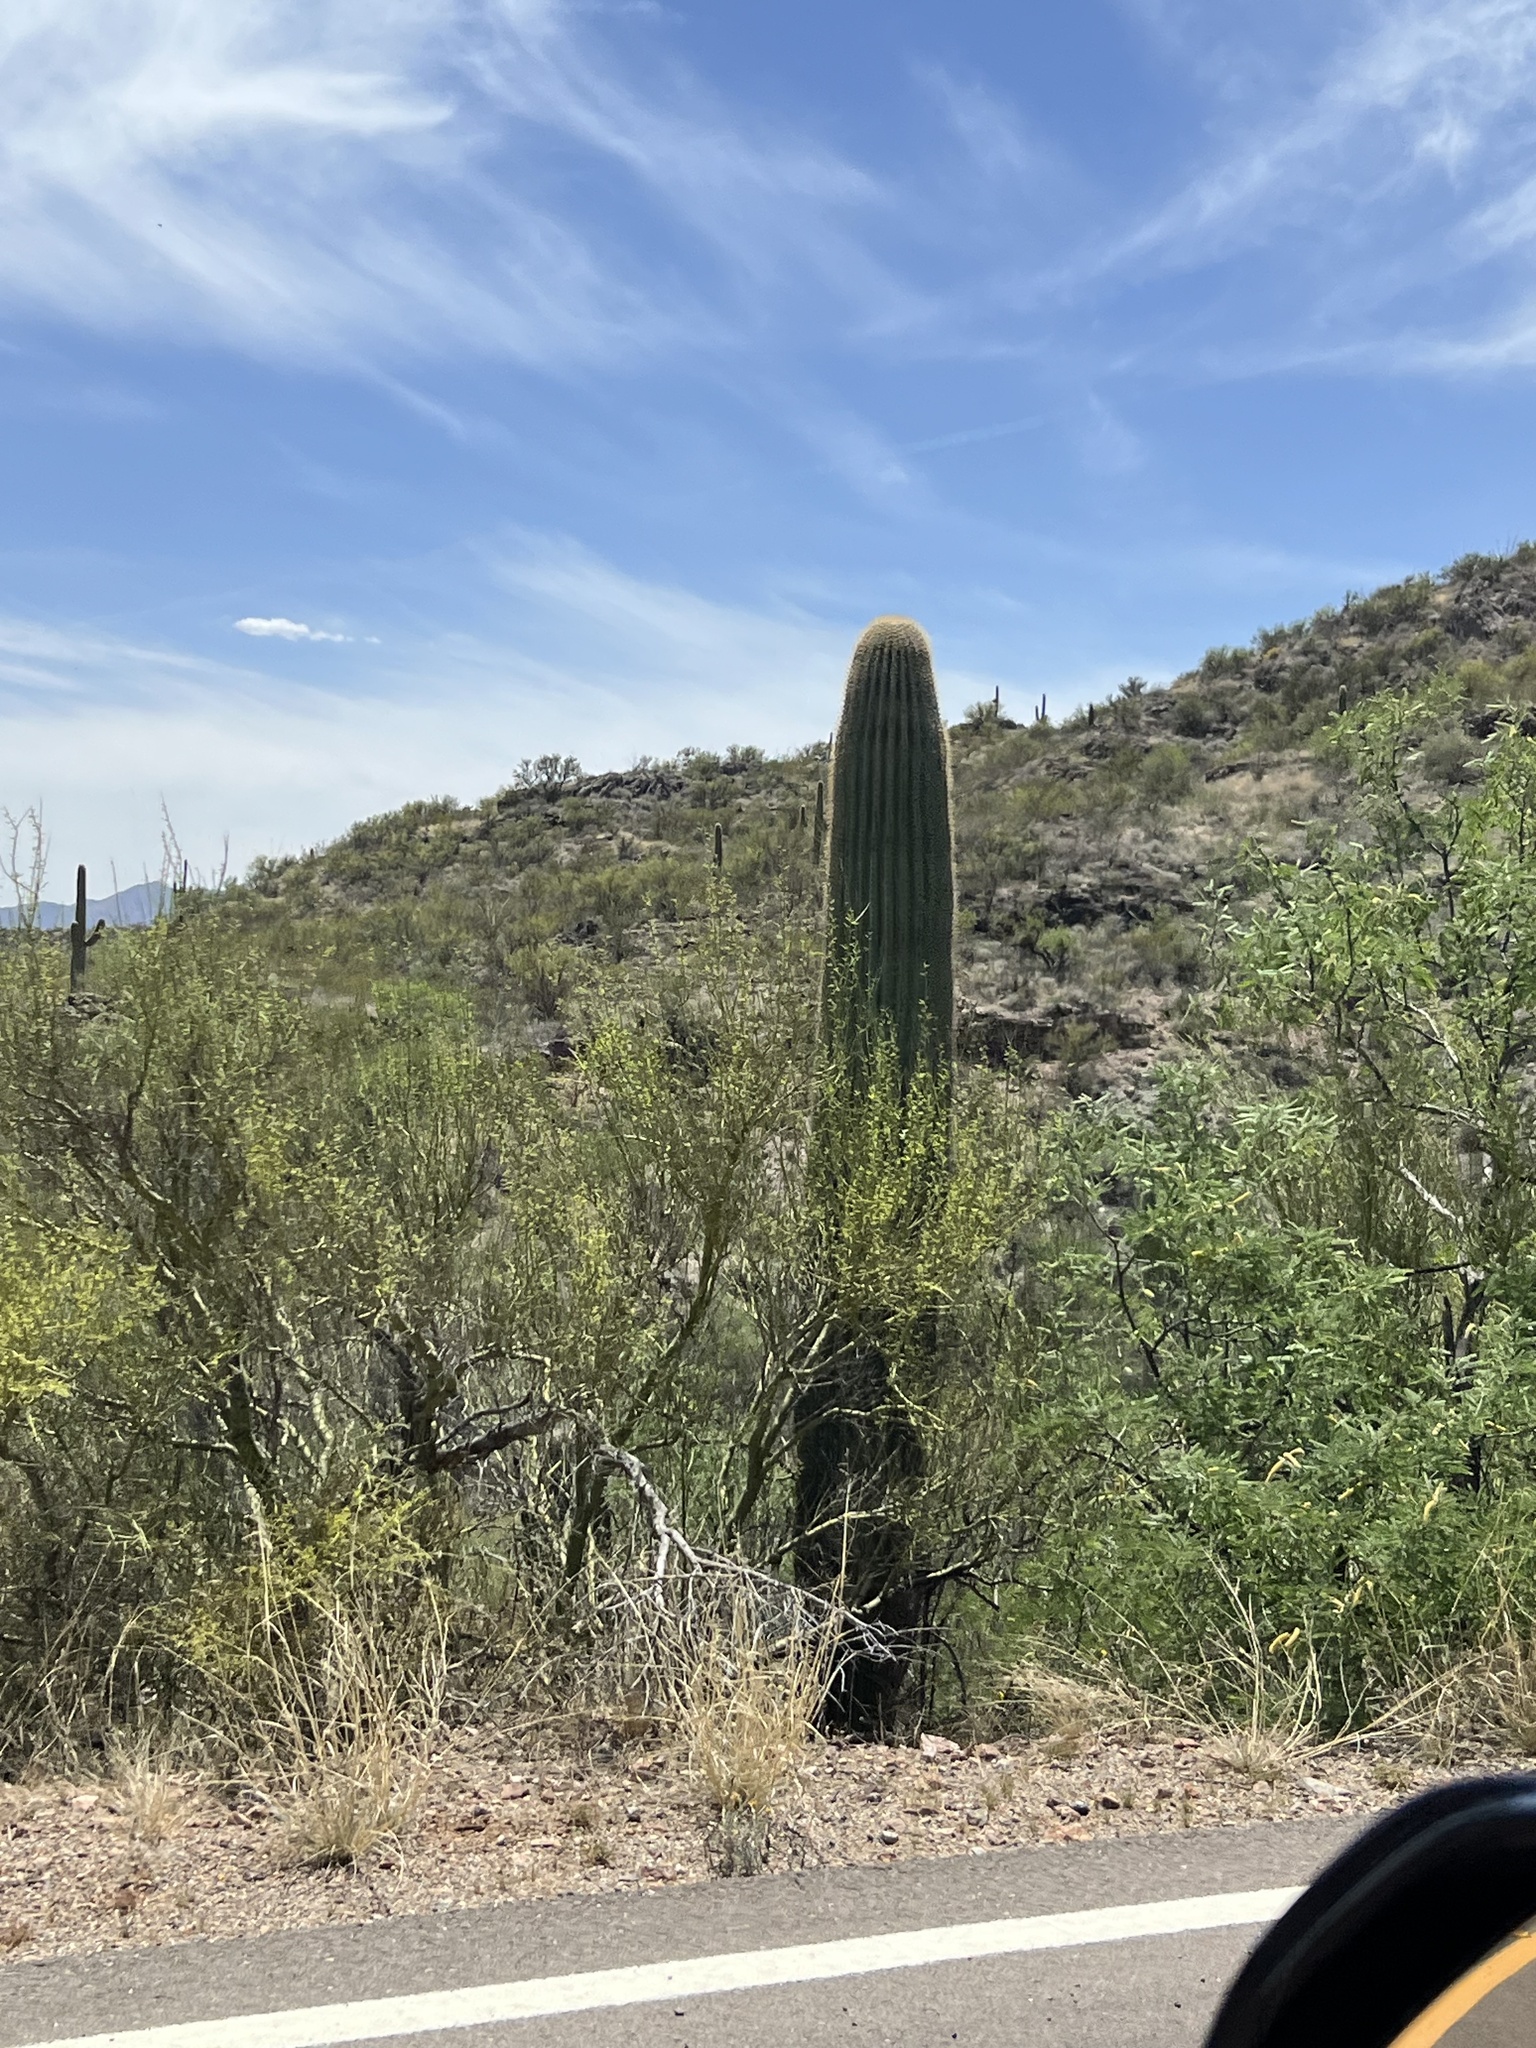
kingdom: Plantae
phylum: Tracheophyta
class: Magnoliopsida
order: Caryophyllales
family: Cactaceae
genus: Carnegiea
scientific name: Carnegiea gigantea
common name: Saguaro
